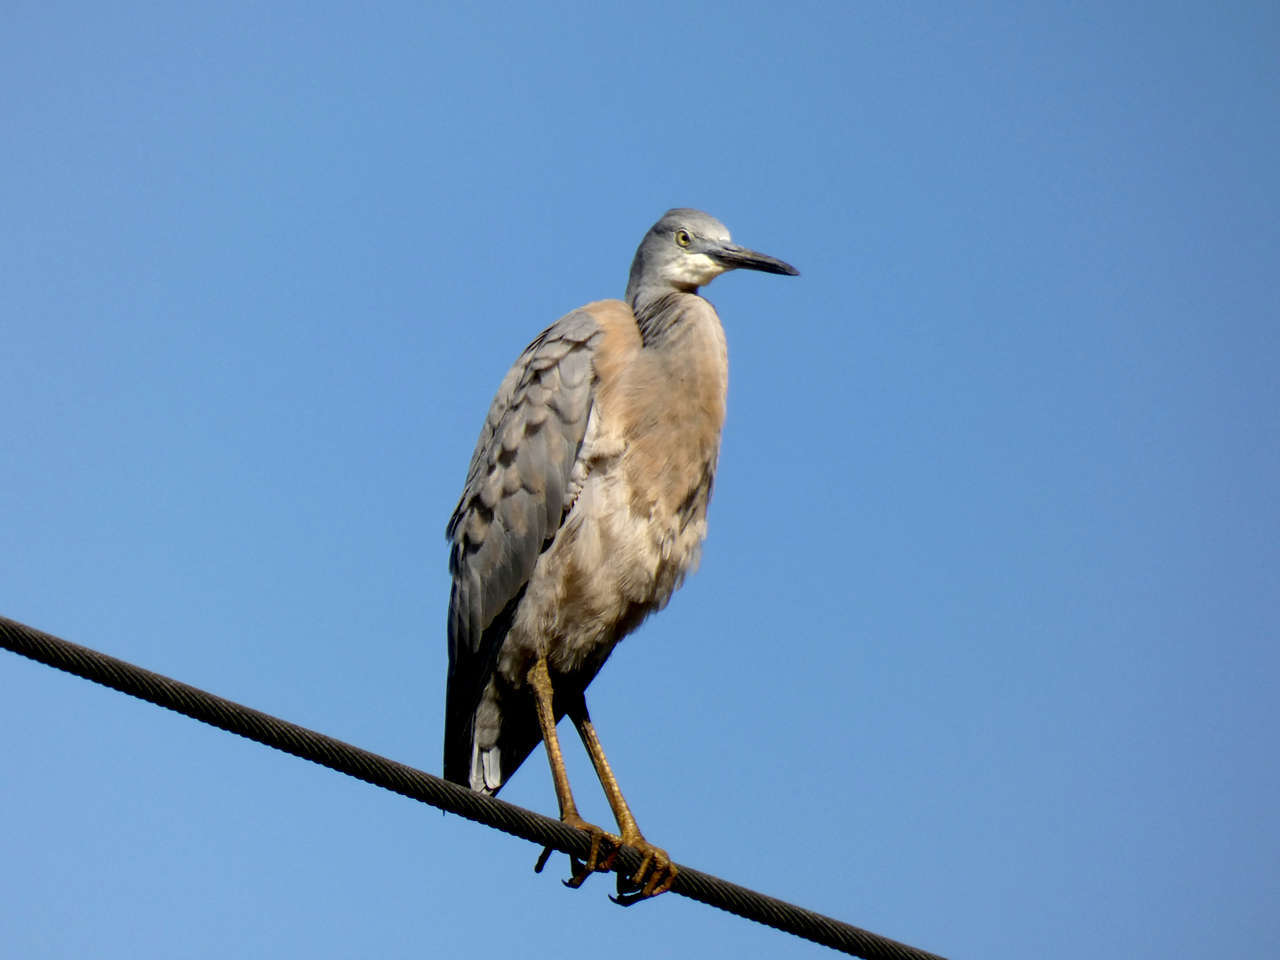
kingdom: Animalia
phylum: Chordata
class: Aves
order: Pelecaniformes
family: Ardeidae
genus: Egretta
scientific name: Egretta novaehollandiae
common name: White-faced heron
